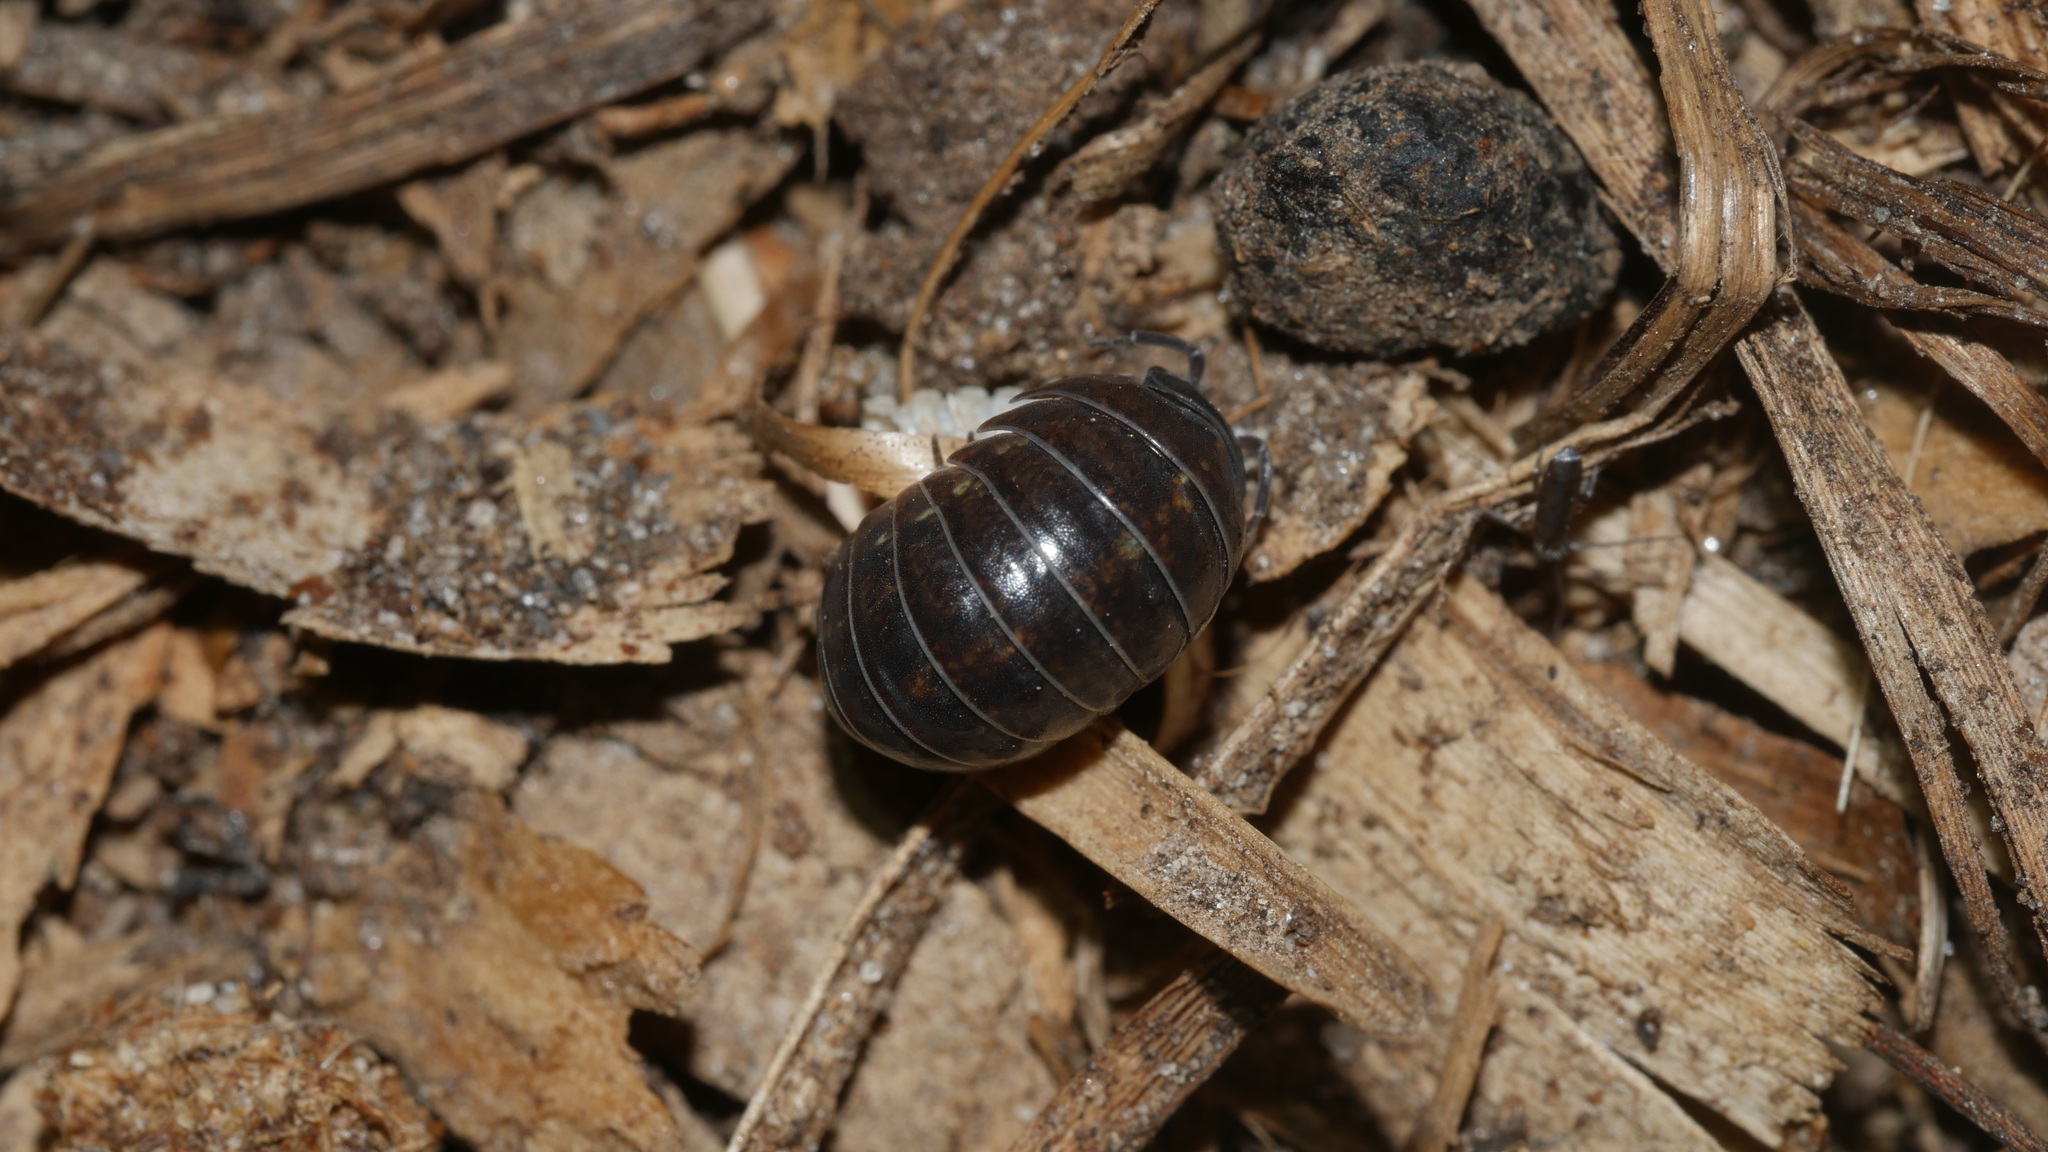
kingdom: Animalia
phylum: Arthropoda
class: Malacostraca
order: Isopoda
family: Armadillidiidae
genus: Armadillidium
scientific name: Armadillidium vulgare
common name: Common pill woodlouse
